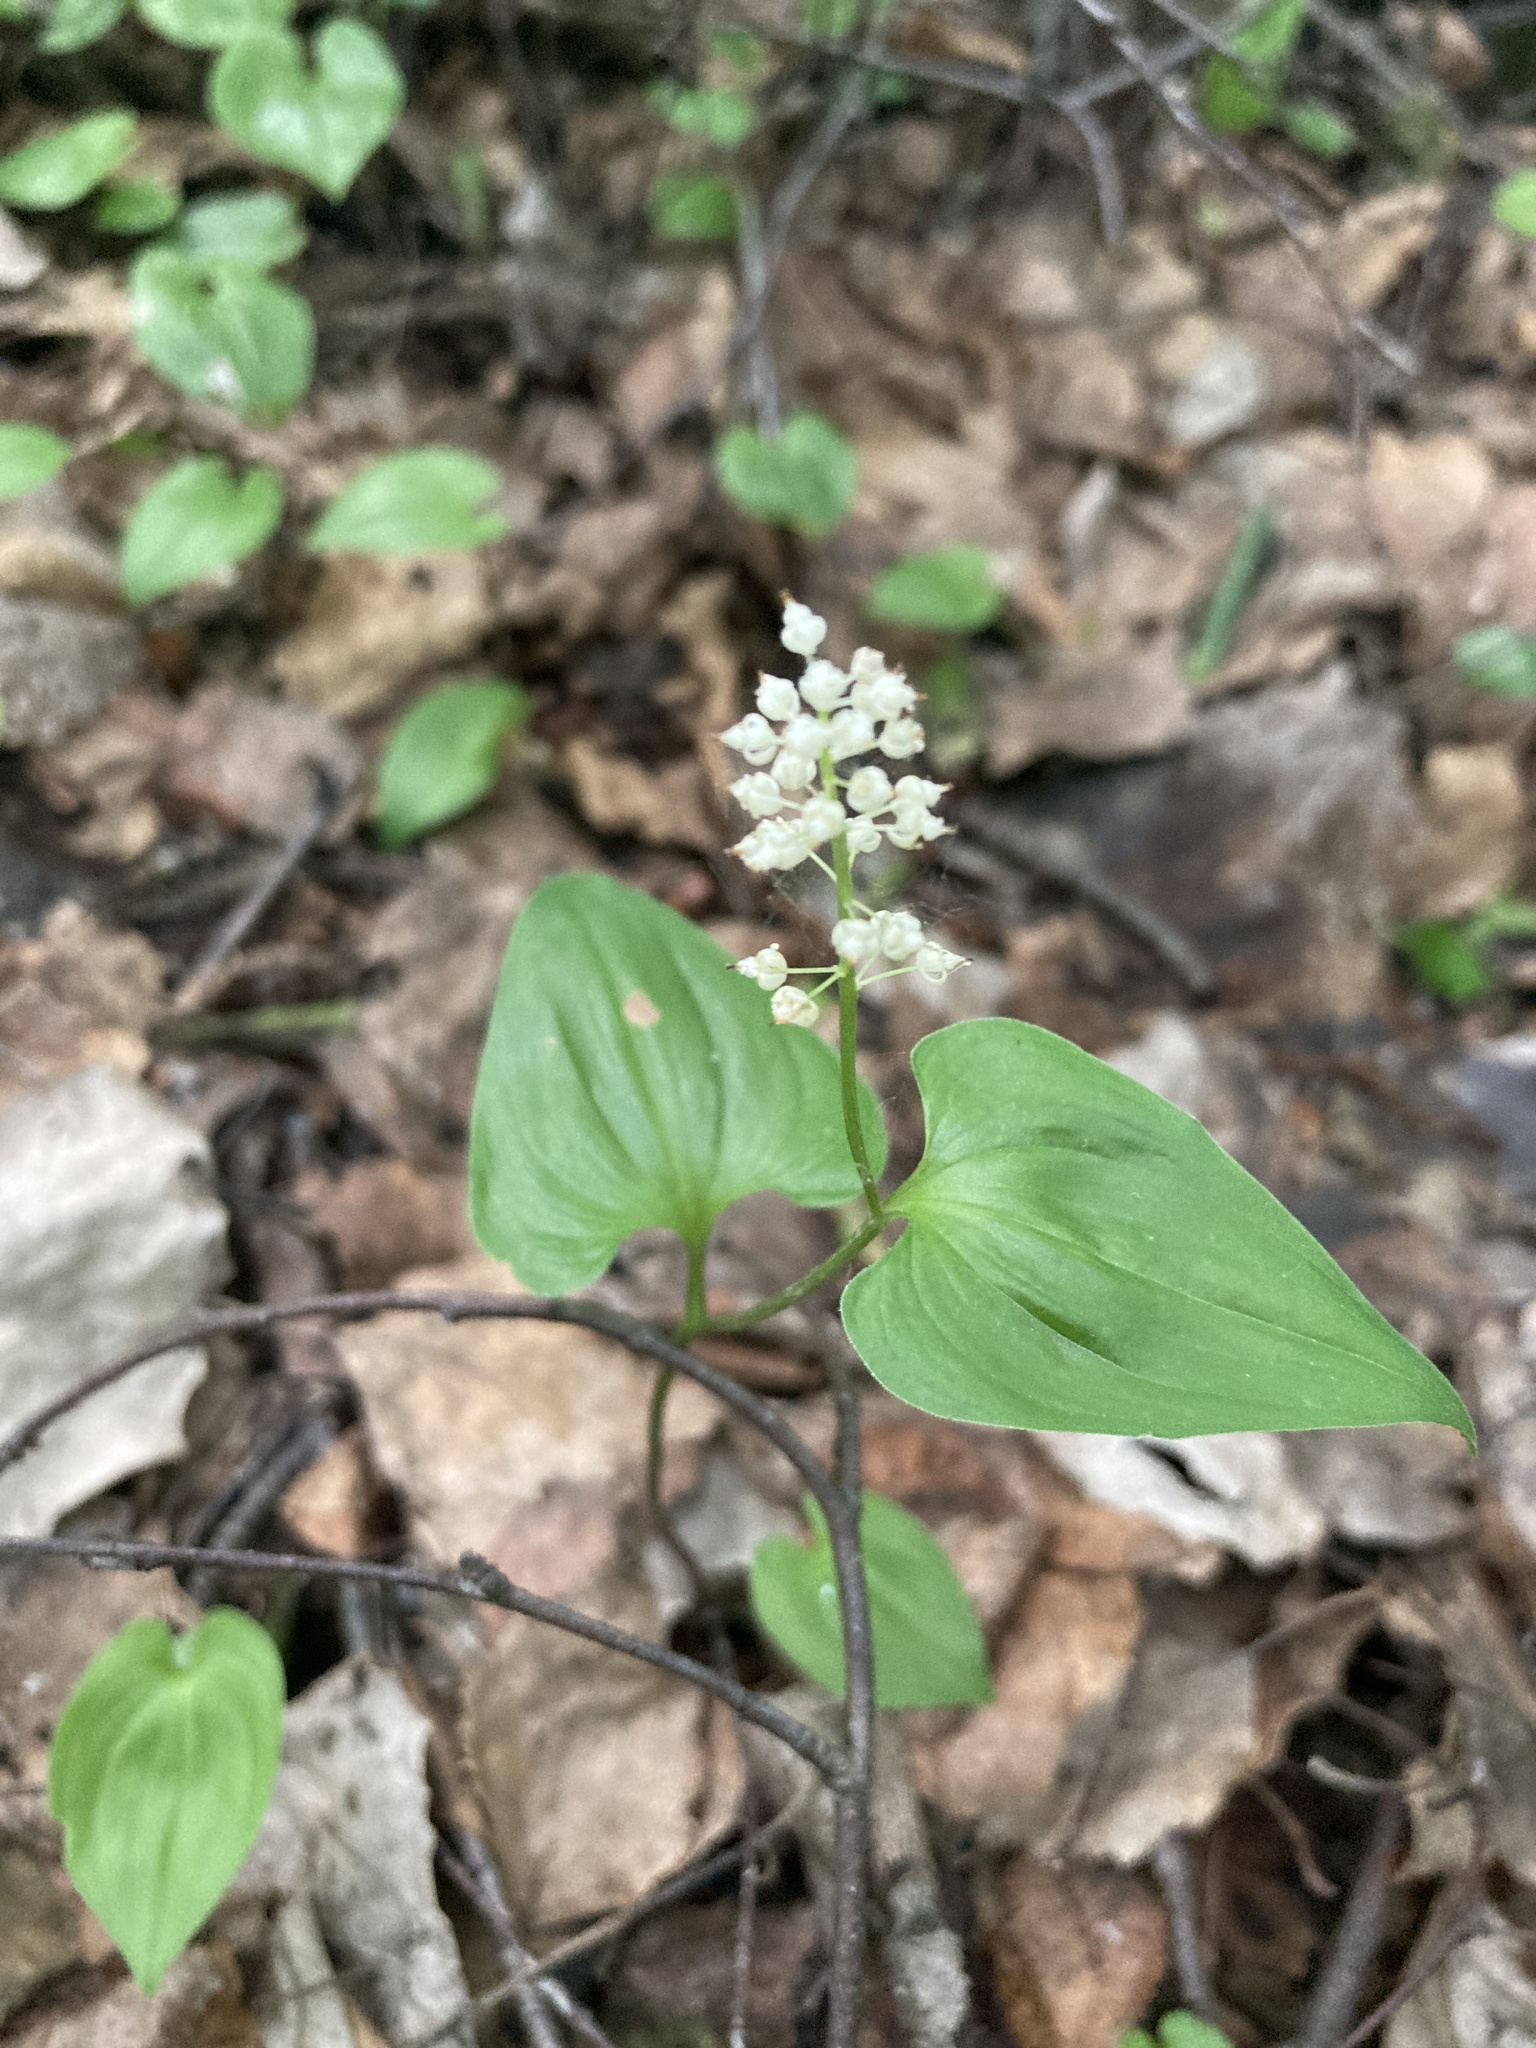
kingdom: Plantae
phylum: Tracheophyta
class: Liliopsida
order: Asparagales
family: Asparagaceae
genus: Maianthemum
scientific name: Maianthemum bifolium
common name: May lily
